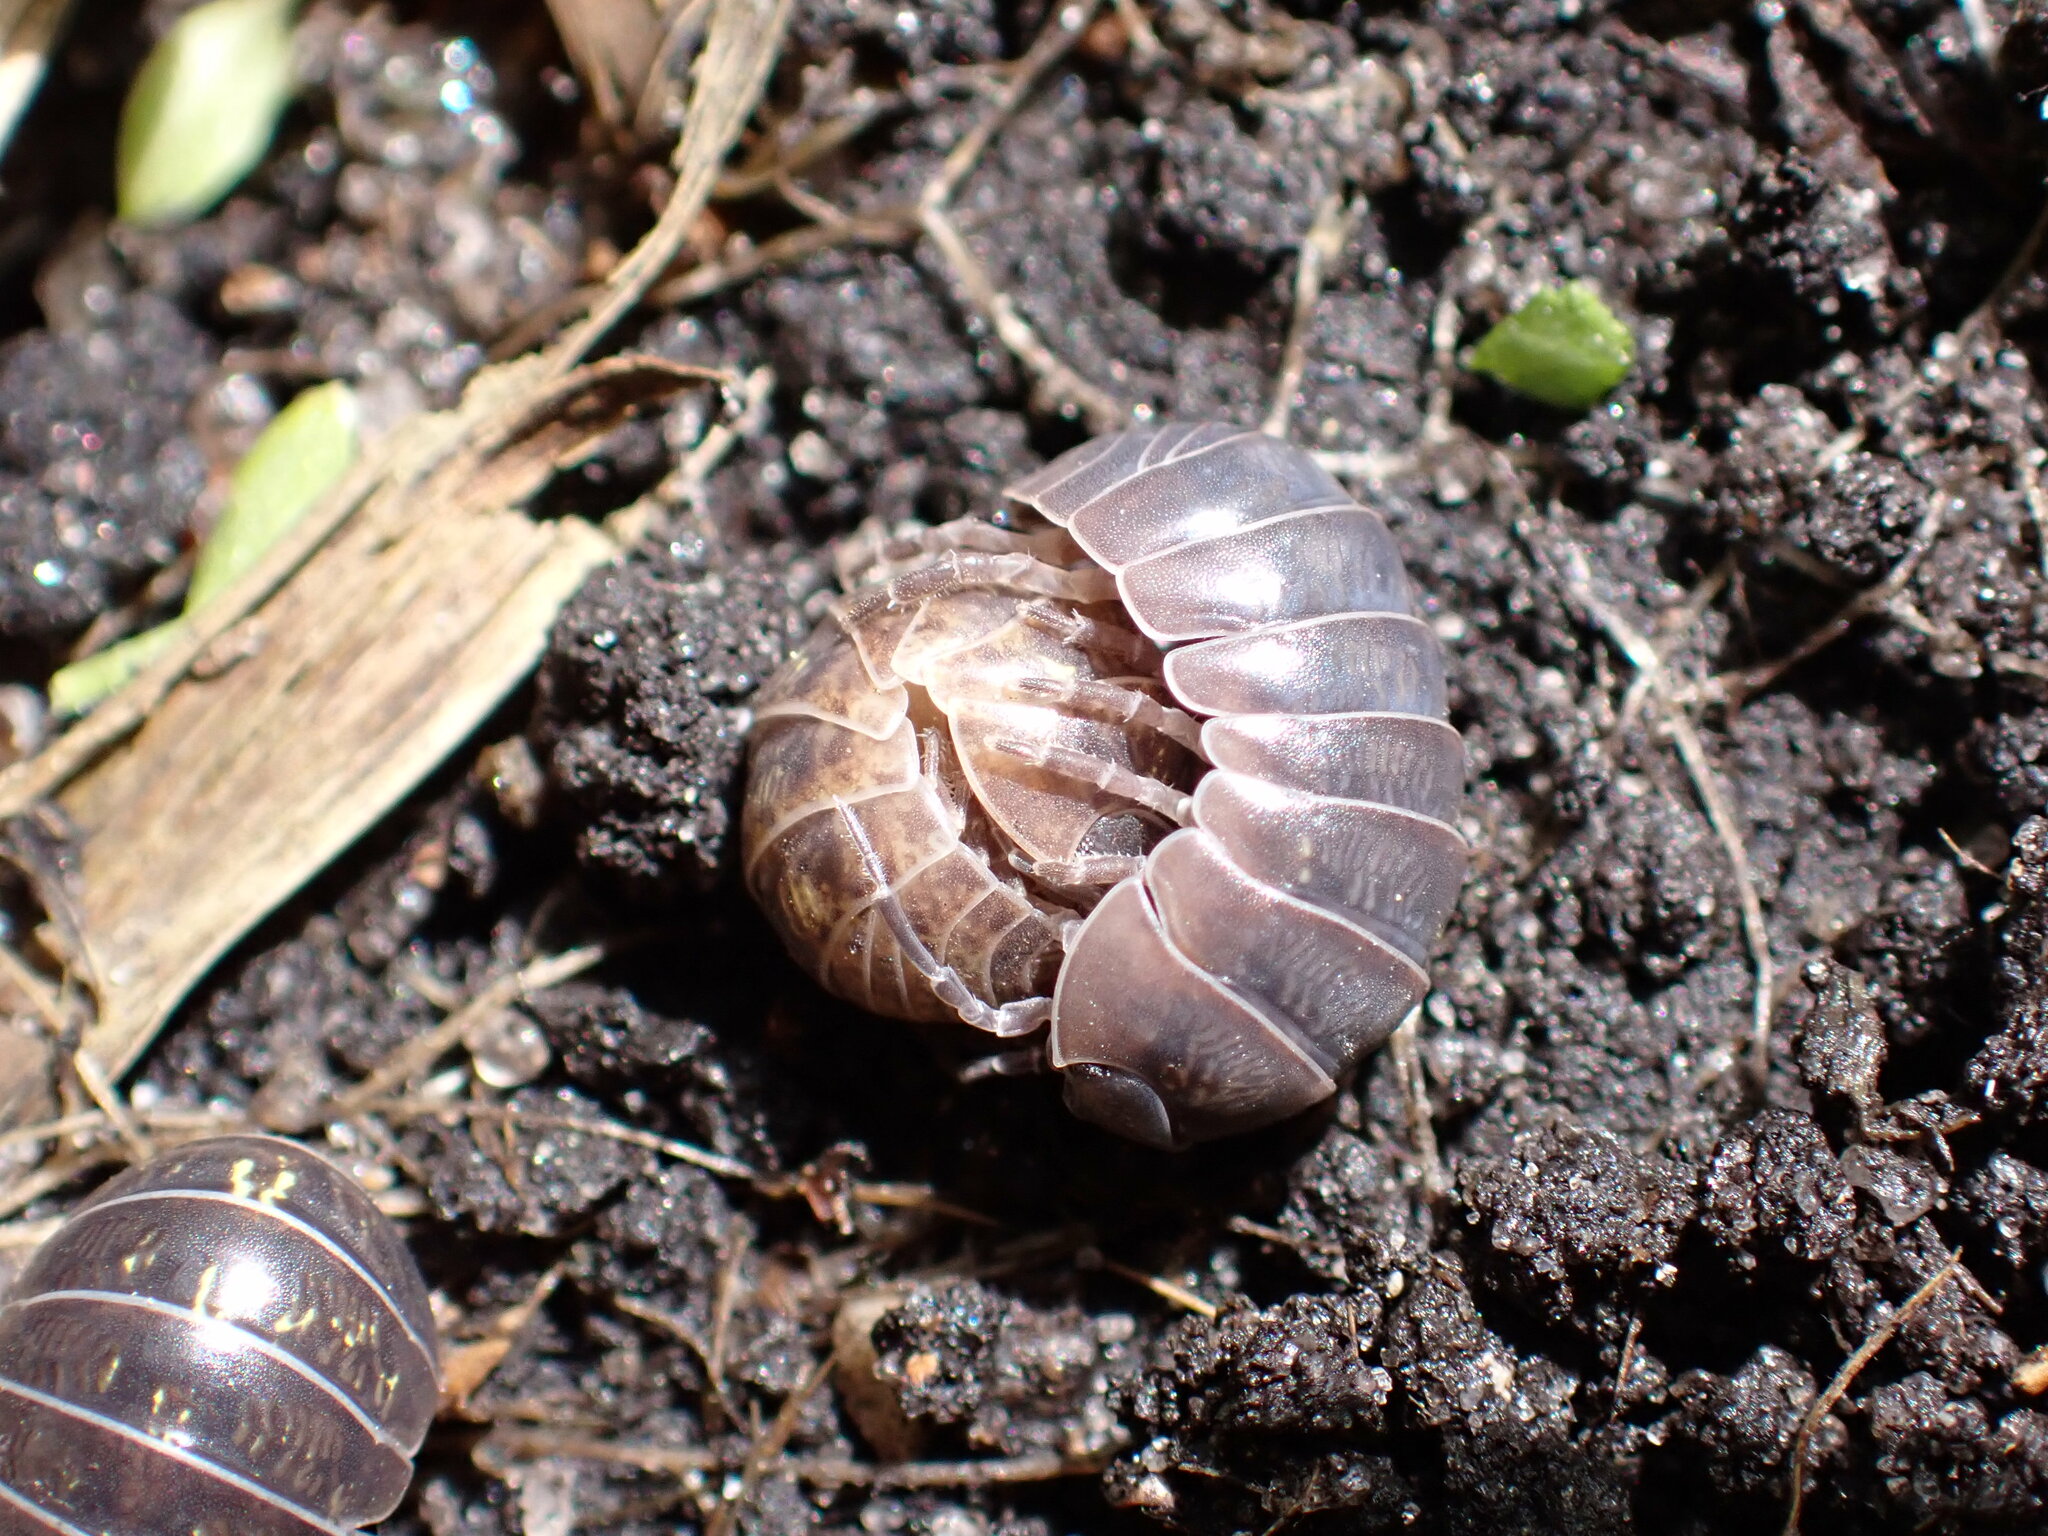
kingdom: Animalia
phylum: Arthropoda
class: Malacostraca
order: Isopoda
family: Armadillidiidae
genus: Armadillidium
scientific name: Armadillidium vulgare
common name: Common pill woodlouse
